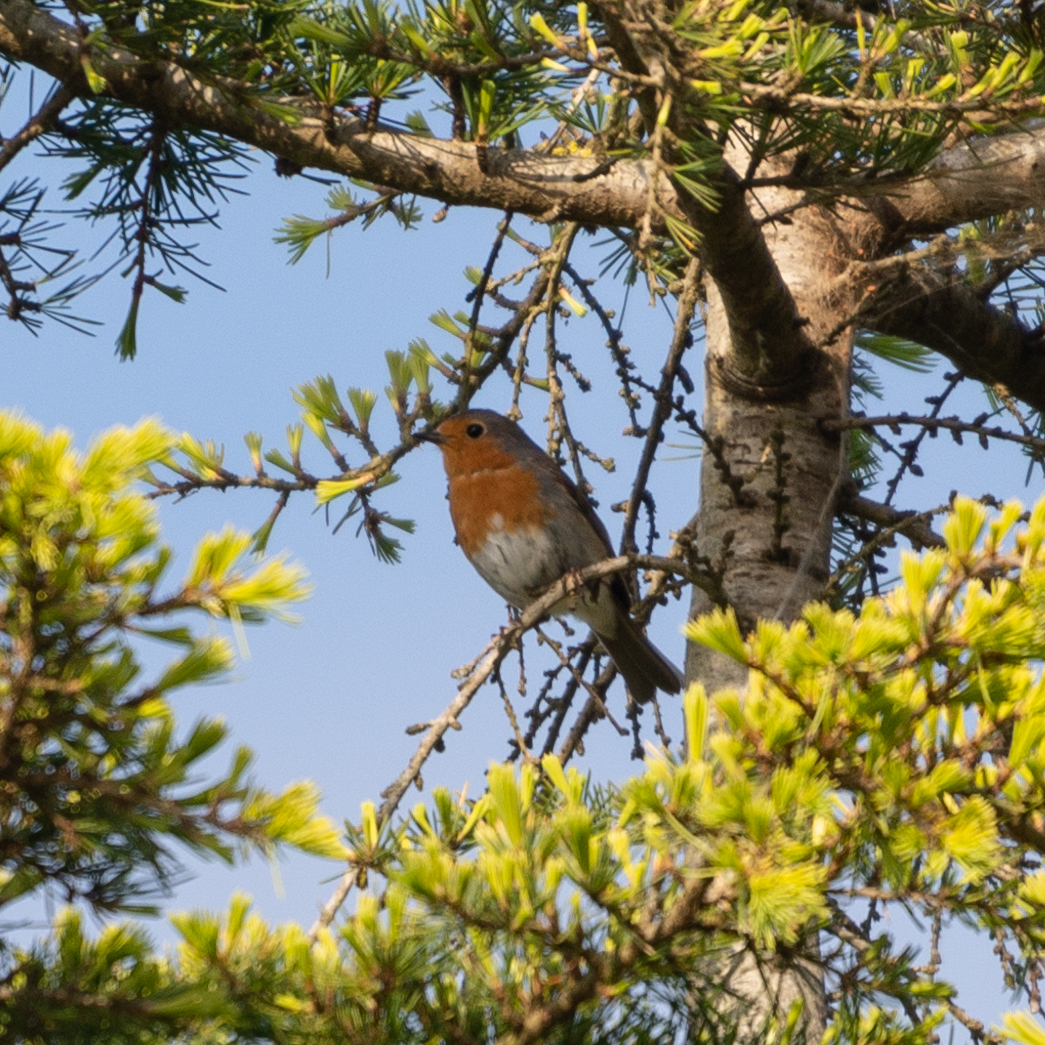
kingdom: Animalia
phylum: Chordata
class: Aves
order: Passeriformes
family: Muscicapidae
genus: Erithacus
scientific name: Erithacus rubecula
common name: European robin
